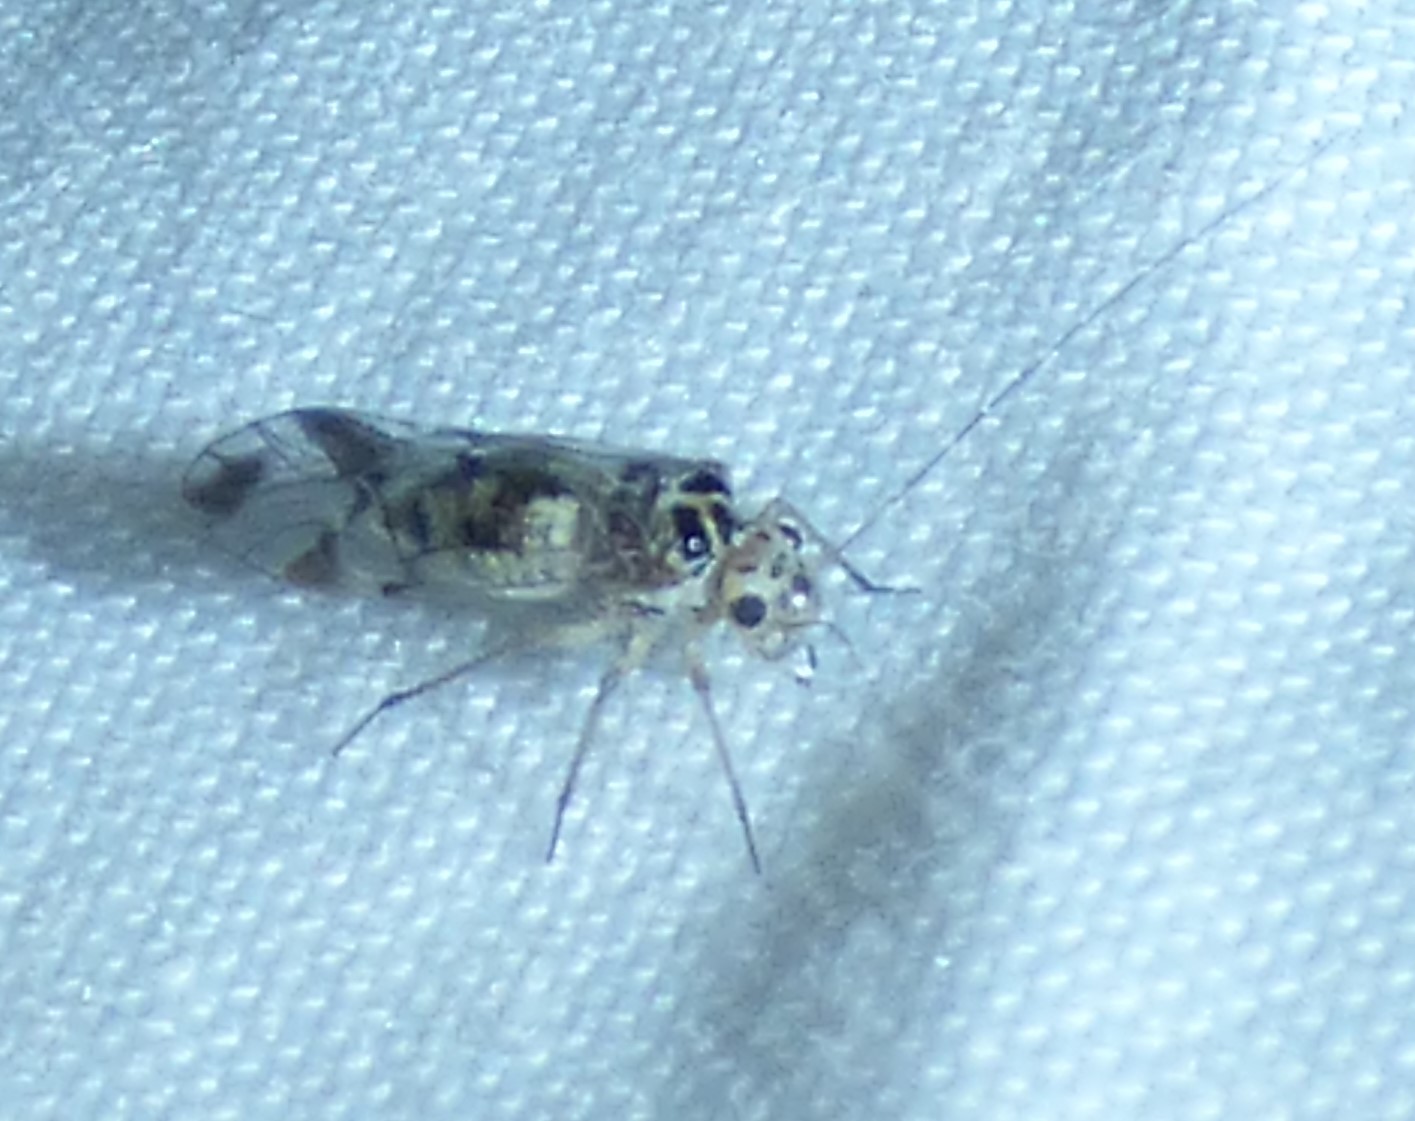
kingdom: Animalia
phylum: Arthropoda
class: Insecta
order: Psocodea
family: Psocidae
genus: Metylophorus
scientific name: Metylophorus novaescotiae
